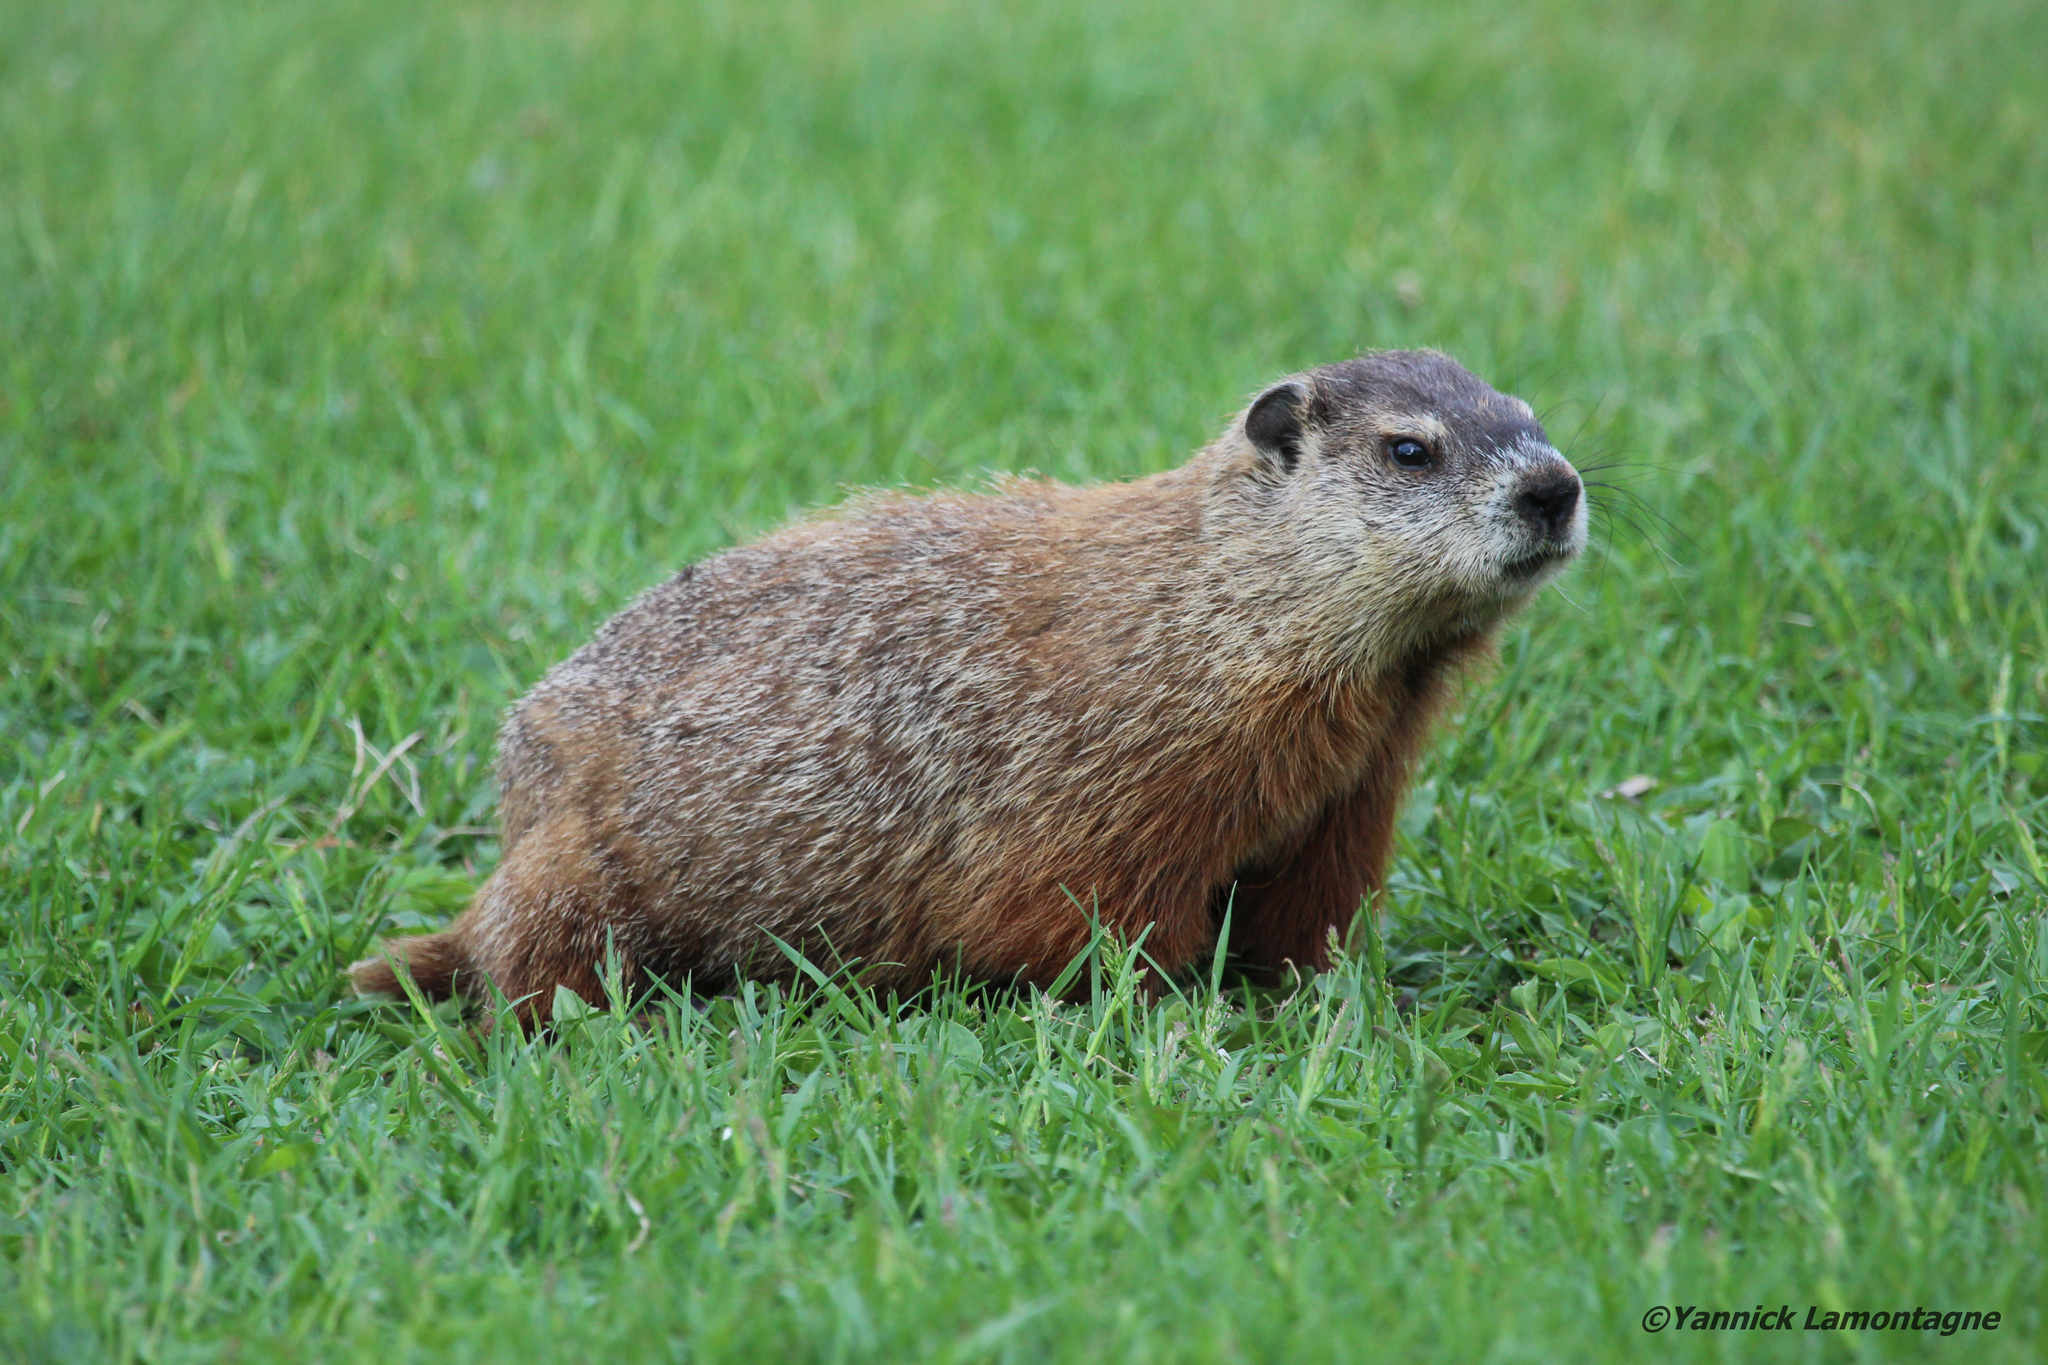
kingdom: Animalia
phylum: Chordata
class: Mammalia
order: Rodentia
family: Sciuridae
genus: Marmota
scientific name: Marmota monax
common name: Groundhog
